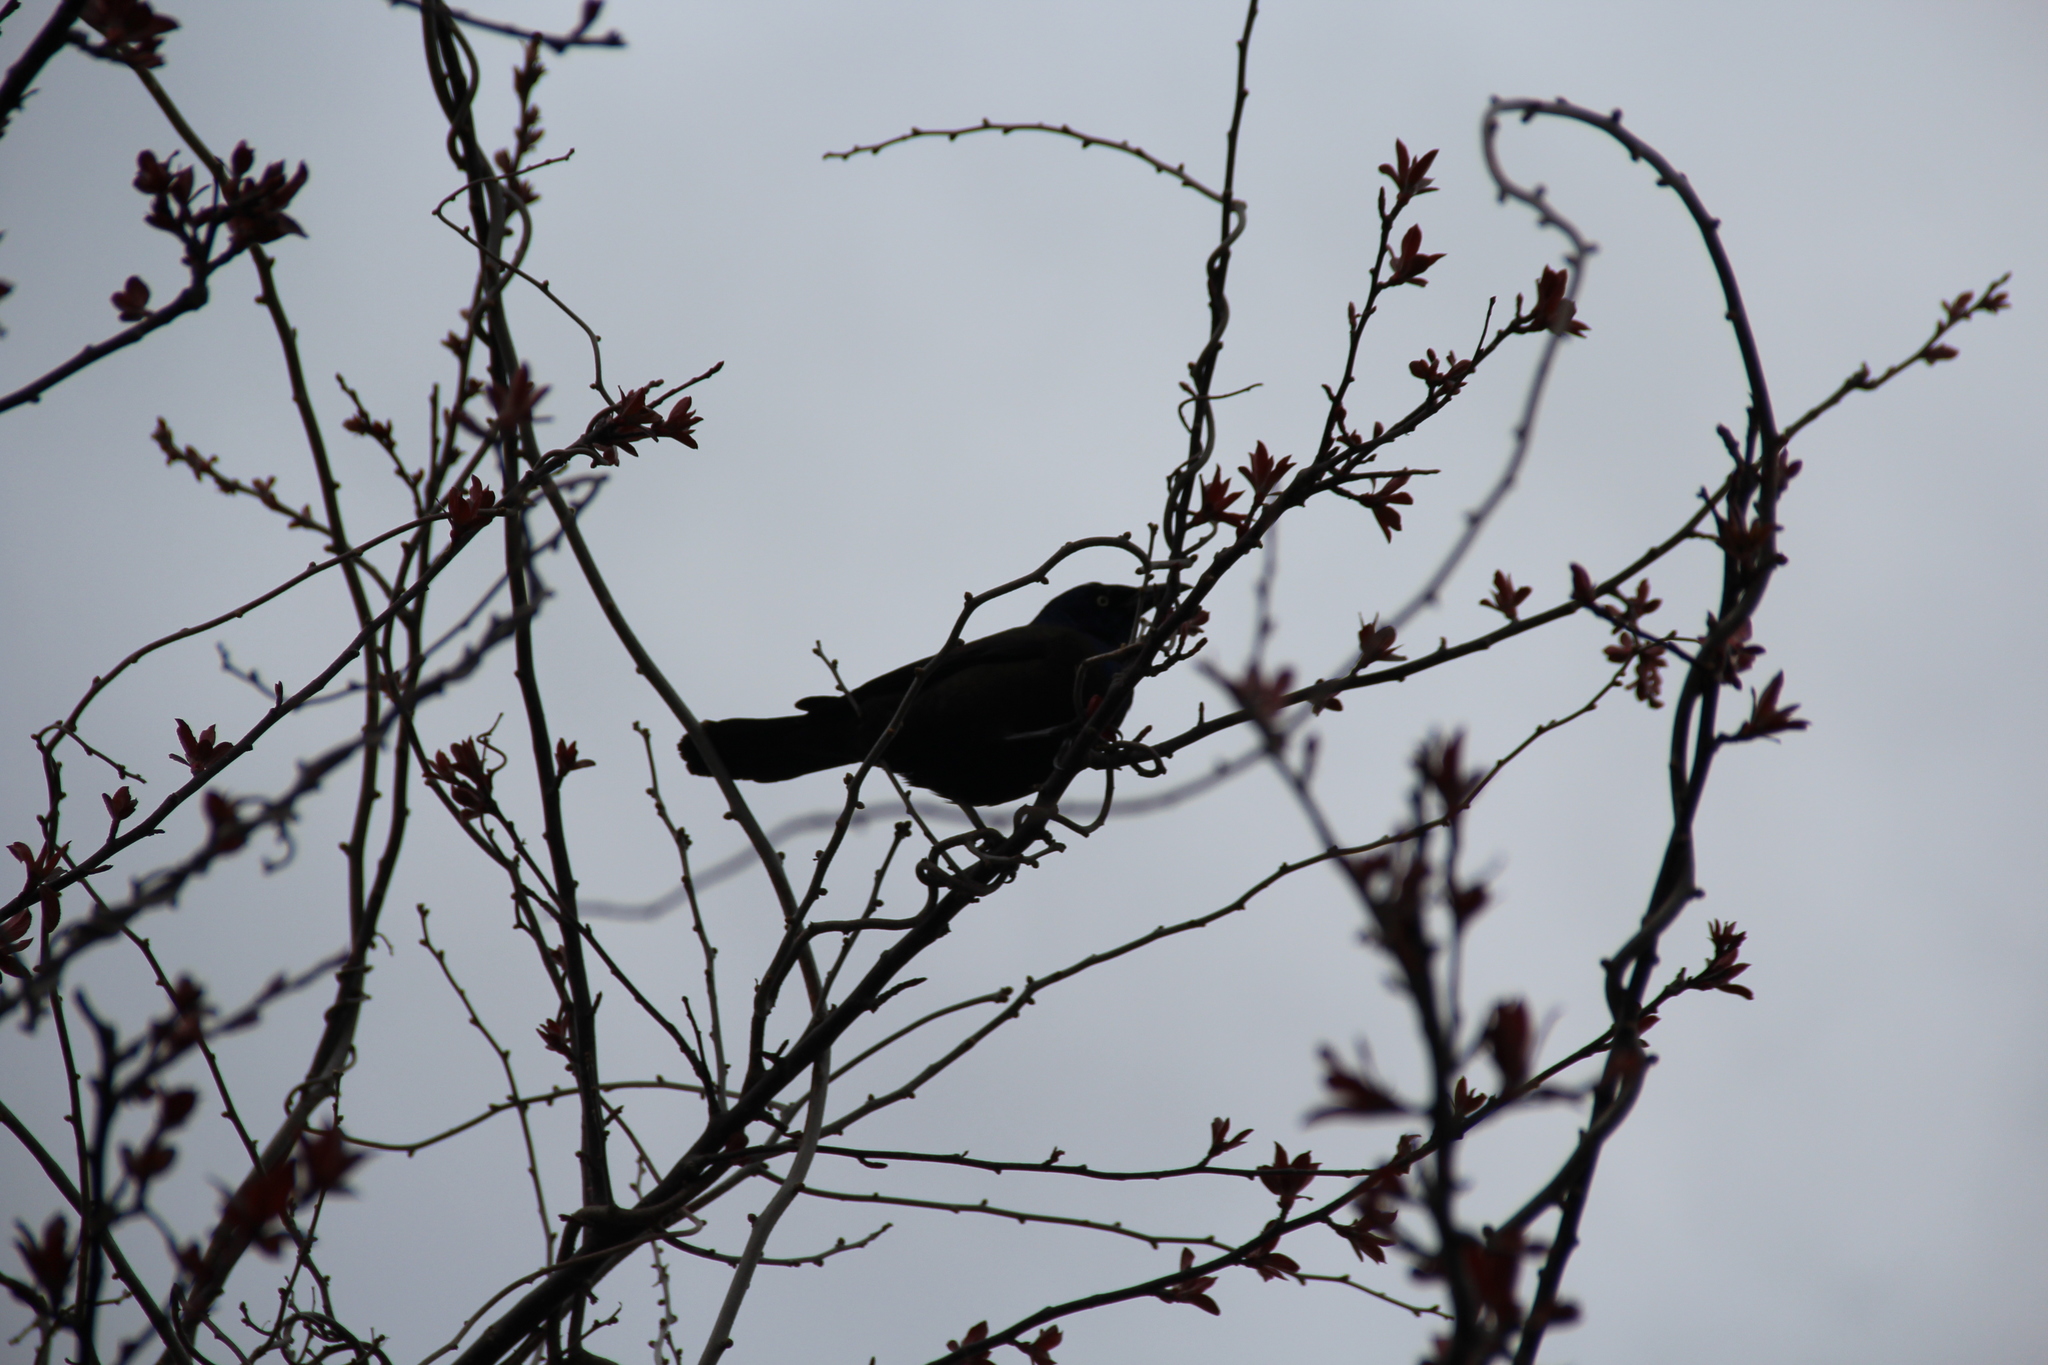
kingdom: Animalia
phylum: Chordata
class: Aves
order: Passeriformes
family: Icteridae
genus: Quiscalus
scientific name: Quiscalus quiscula
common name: Common grackle
